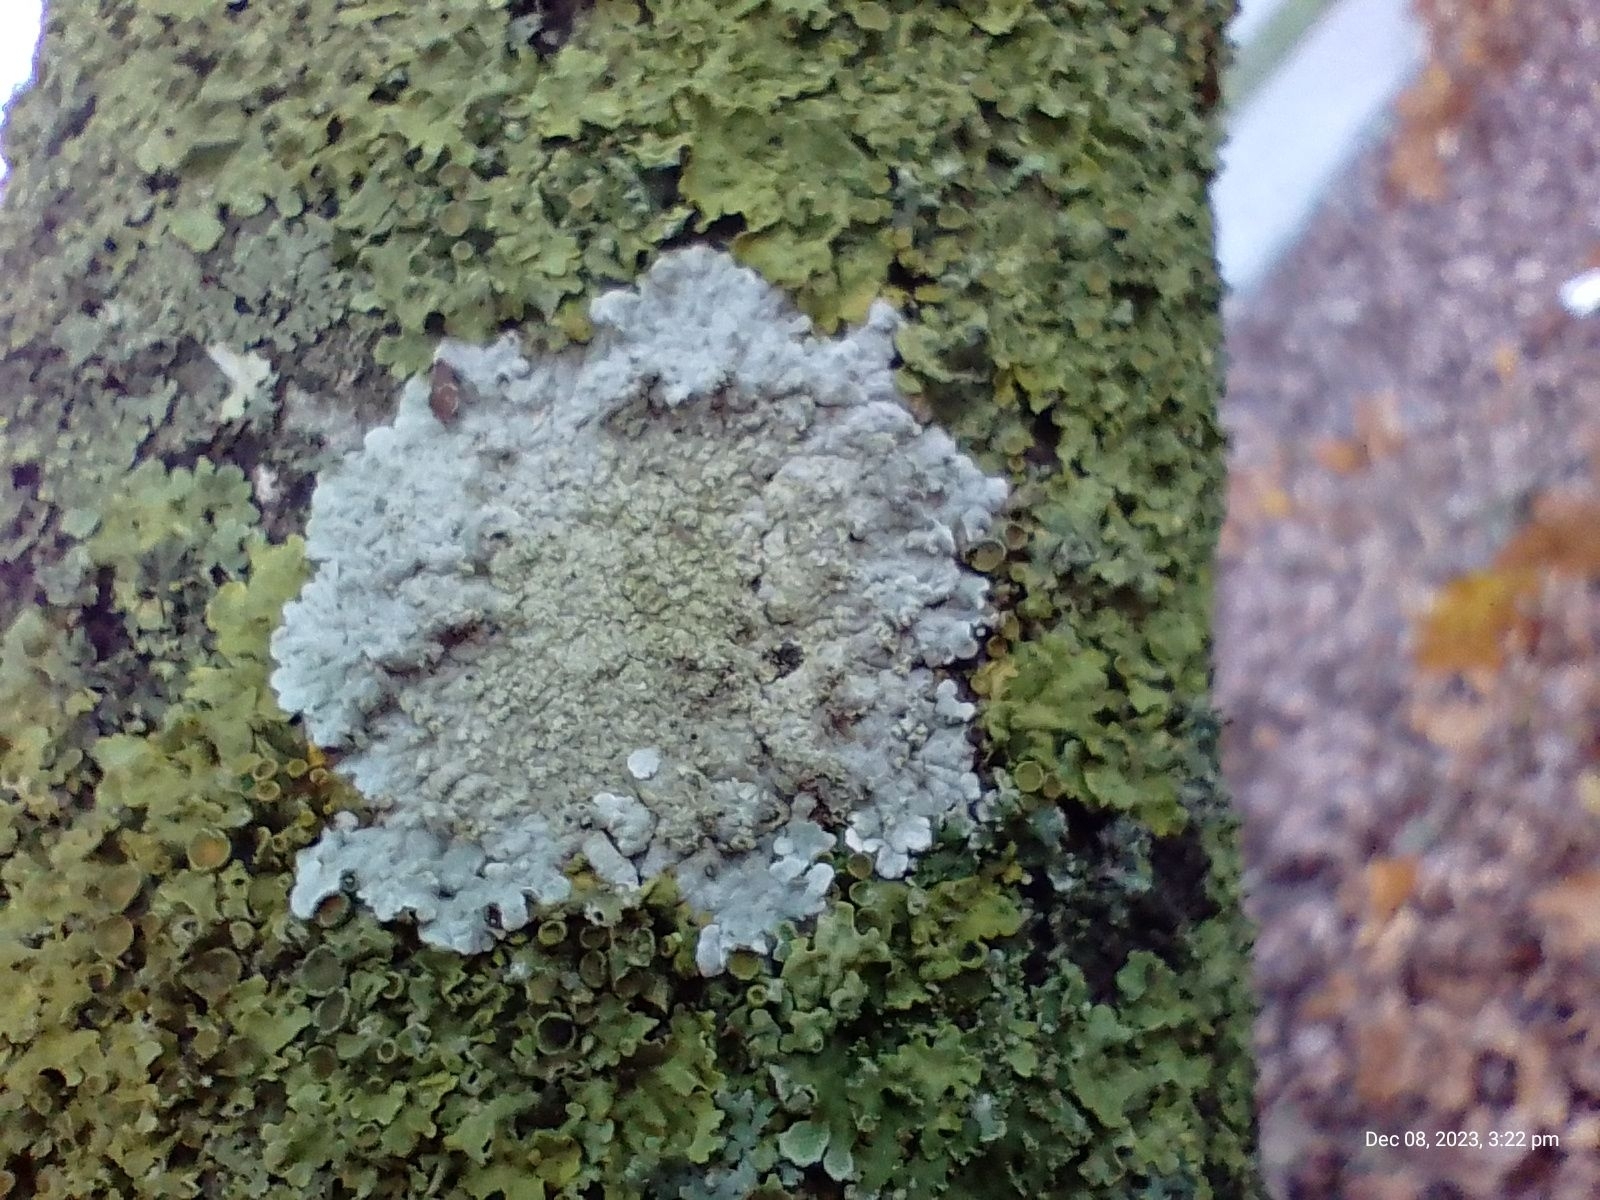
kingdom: Fungi
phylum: Ascomycota
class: Lecanoromycetes
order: Caliciales
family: Caliciaceae
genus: Diploicia
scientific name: Diploicia canescens
